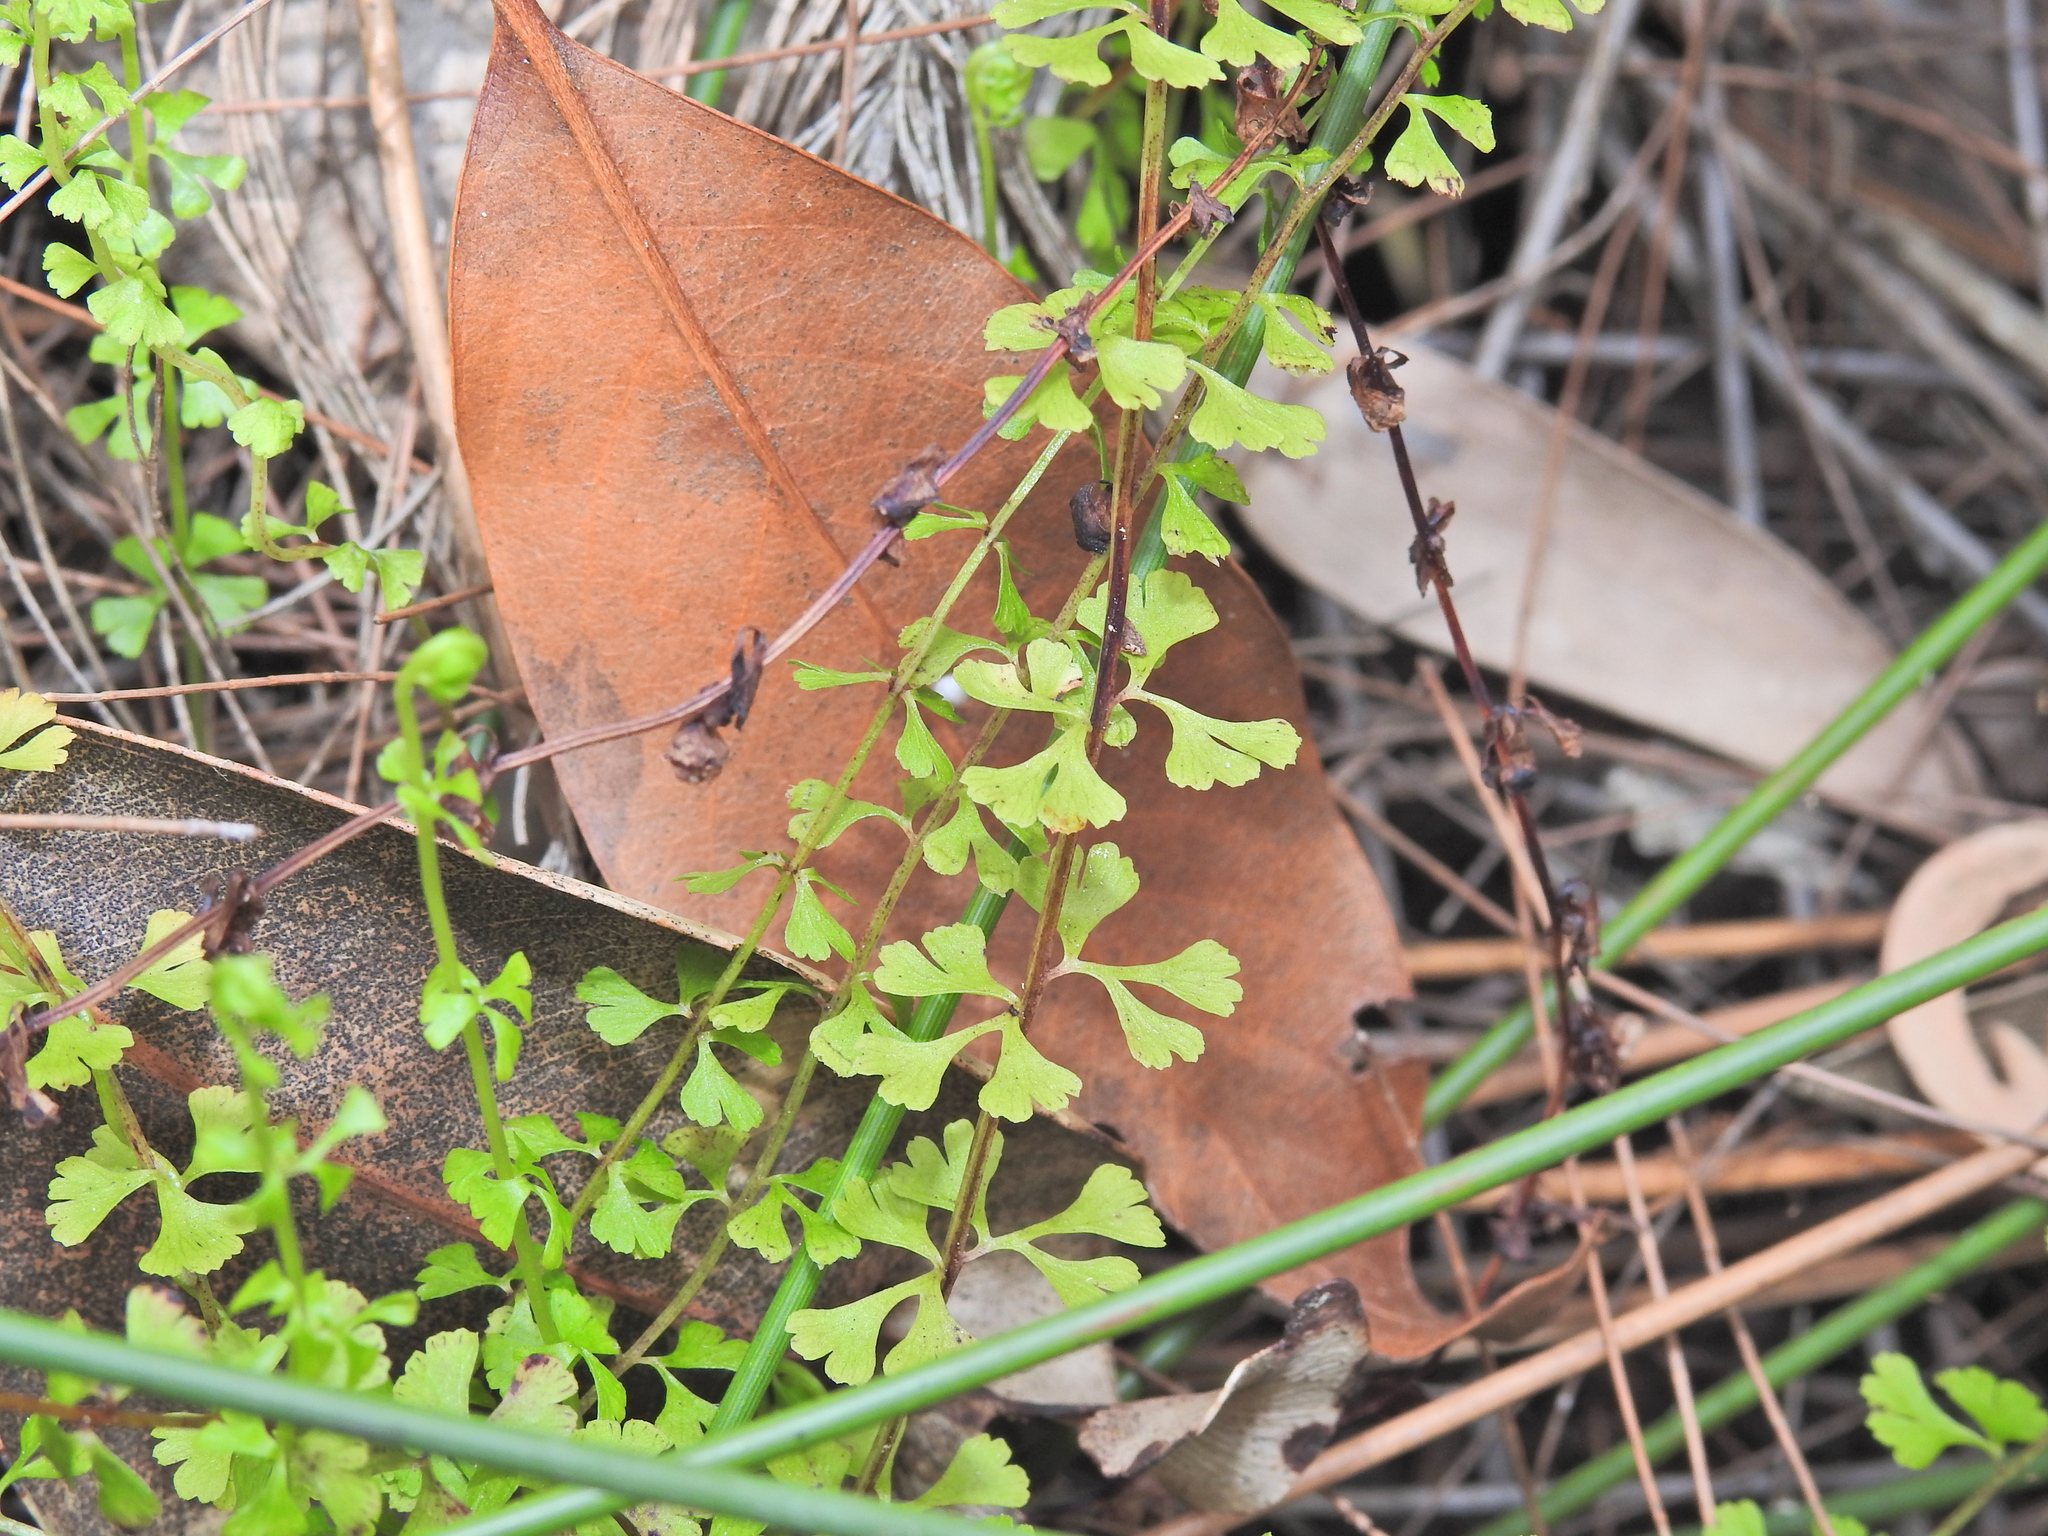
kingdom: Plantae
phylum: Tracheophyta
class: Polypodiopsida
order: Polypodiales
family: Lindsaeaceae
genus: Lindsaea
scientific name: Lindsaea incisa
